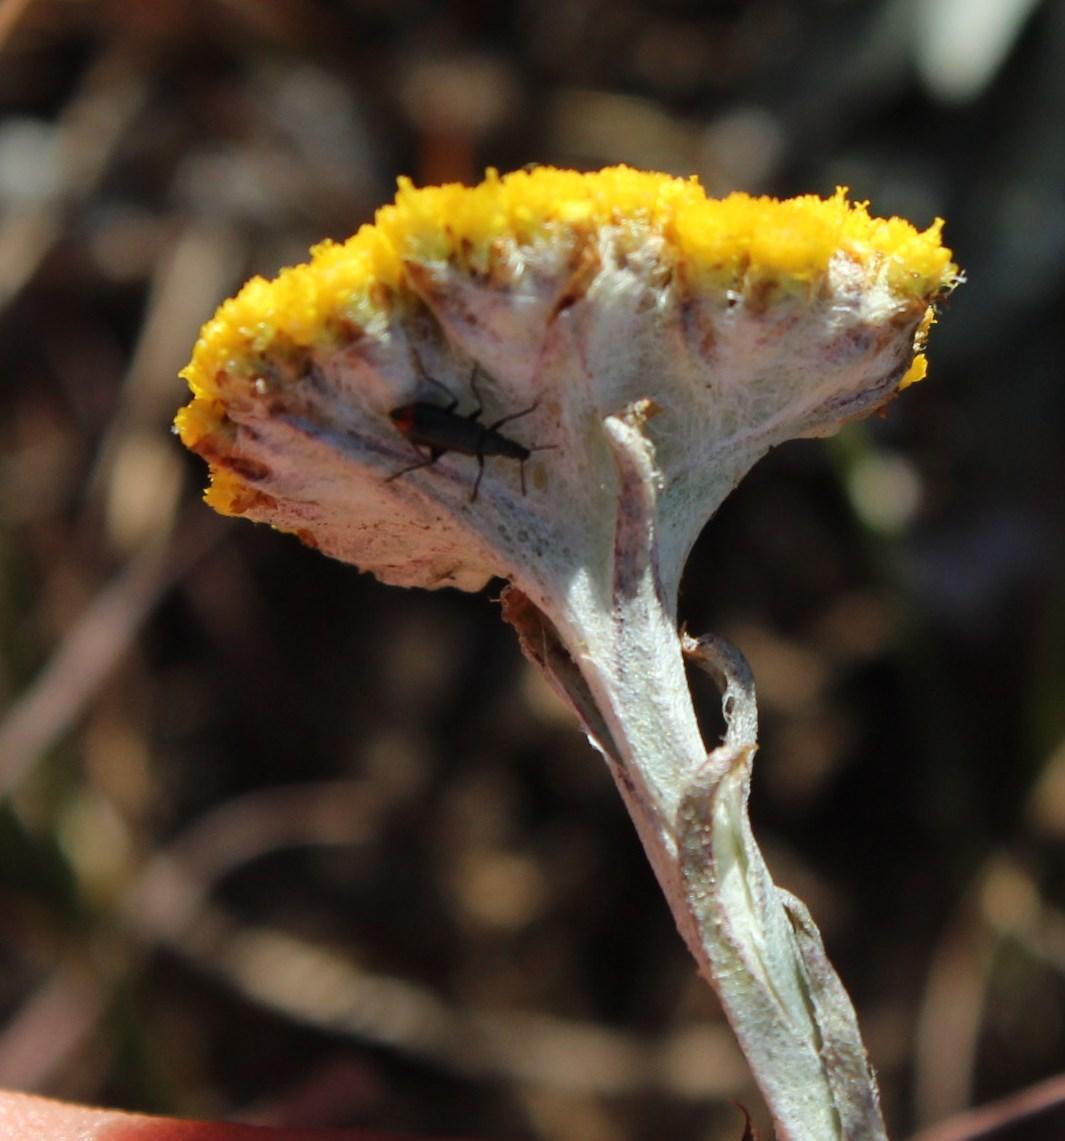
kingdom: Plantae
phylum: Tracheophyta
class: Magnoliopsida
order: Asterales
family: Asteraceae
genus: Helichrysum
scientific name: Helichrysum subglomeratum
